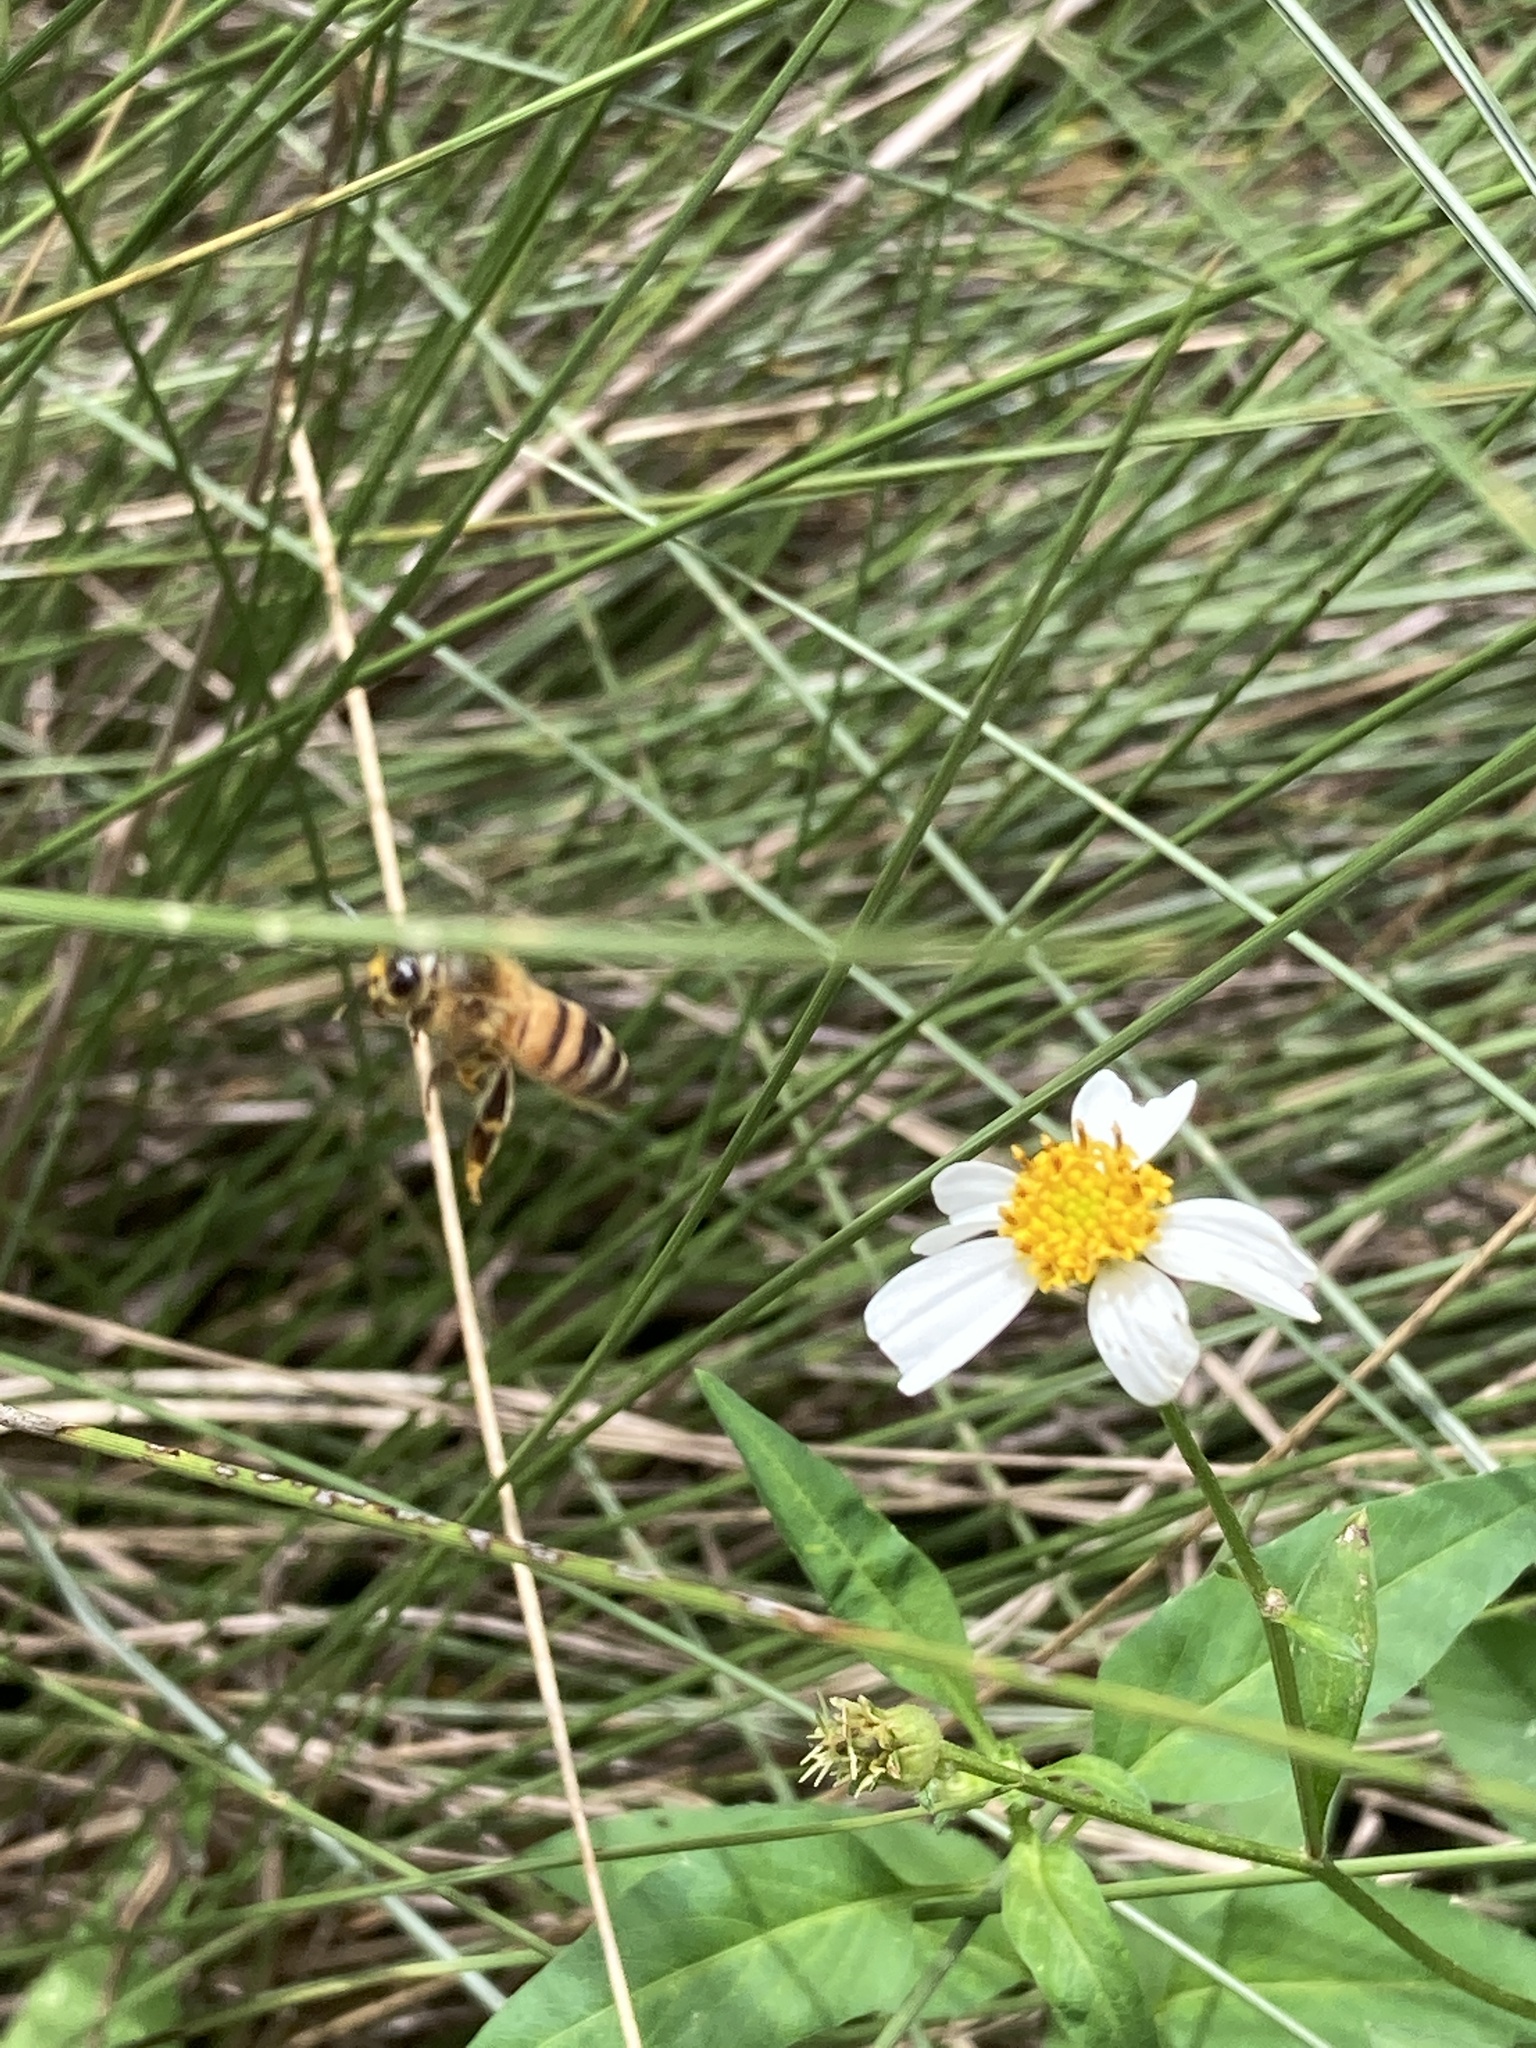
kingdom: Animalia
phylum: Arthropoda
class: Insecta
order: Hymenoptera
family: Apidae
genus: Apis
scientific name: Apis mellifera
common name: Honey bee
